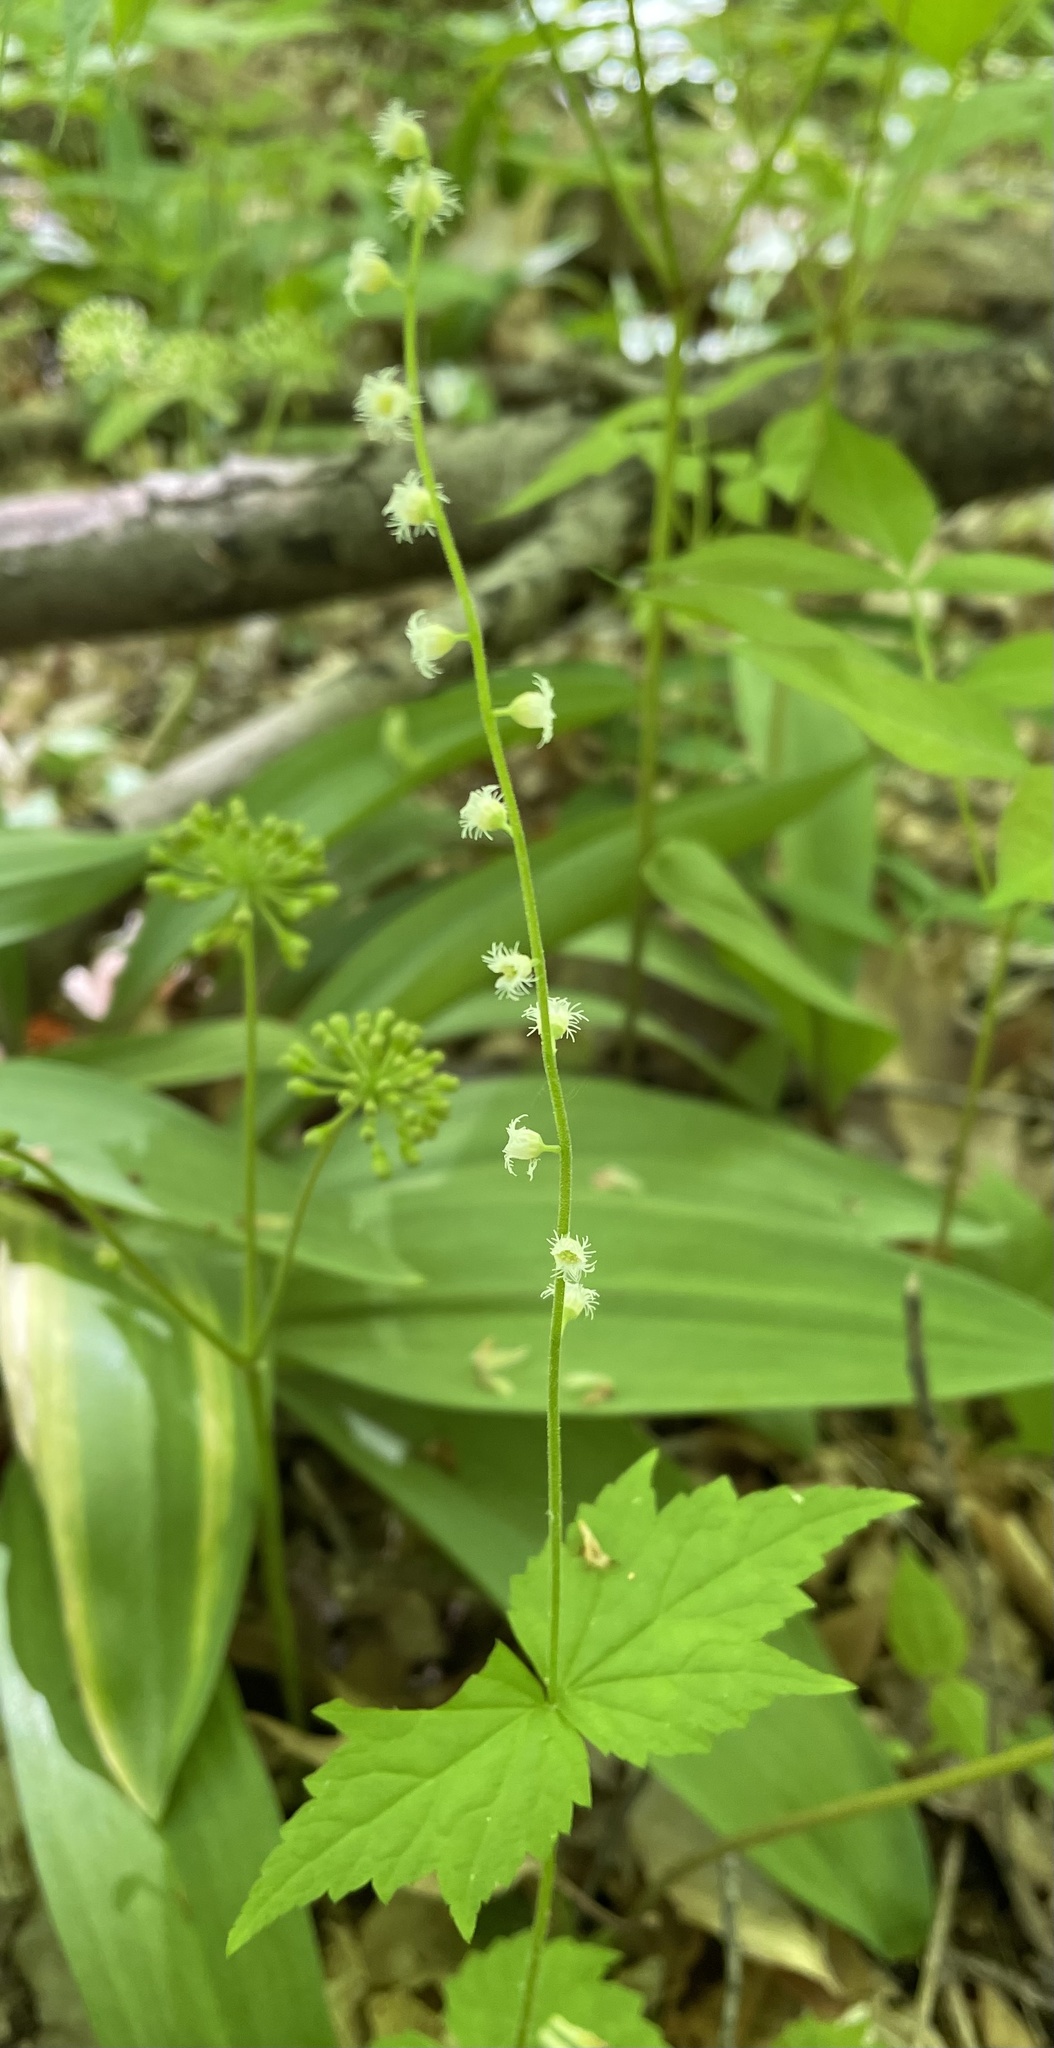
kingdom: Plantae
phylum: Tracheophyta
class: Magnoliopsida
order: Saxifragales
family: Saxifragaceae
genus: Mitella
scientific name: Mitella diphylla
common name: Coolwort
